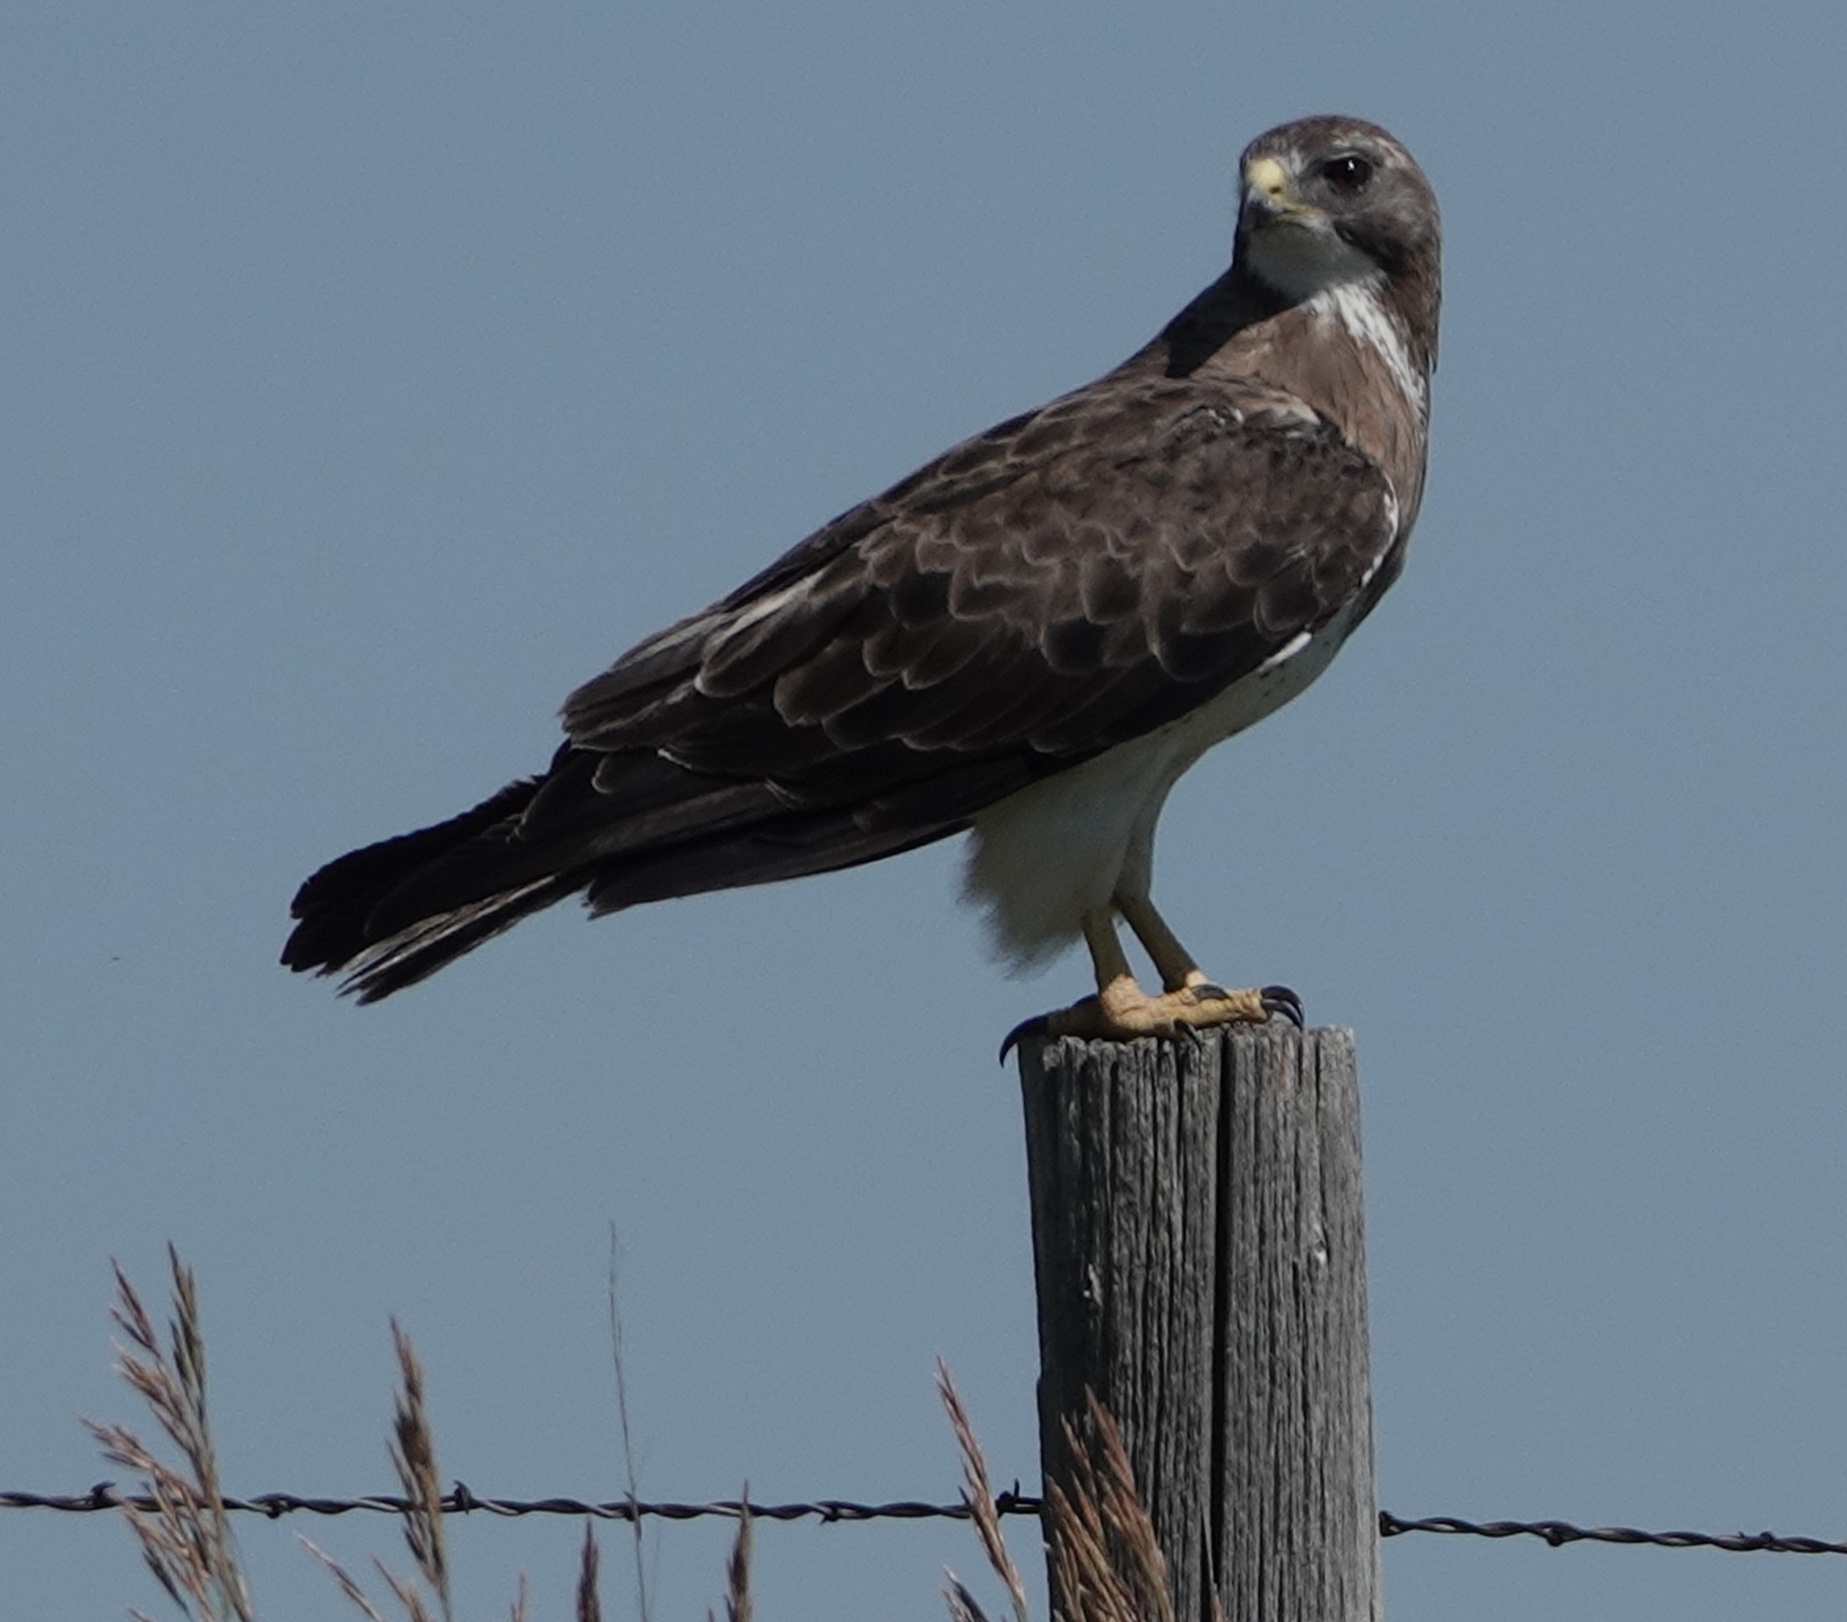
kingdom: Animalia
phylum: Chordata
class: Aves
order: Accipitriformes
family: Accipitridae
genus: Buteo
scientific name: Buteo swainsoni
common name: Swainson's hawk
